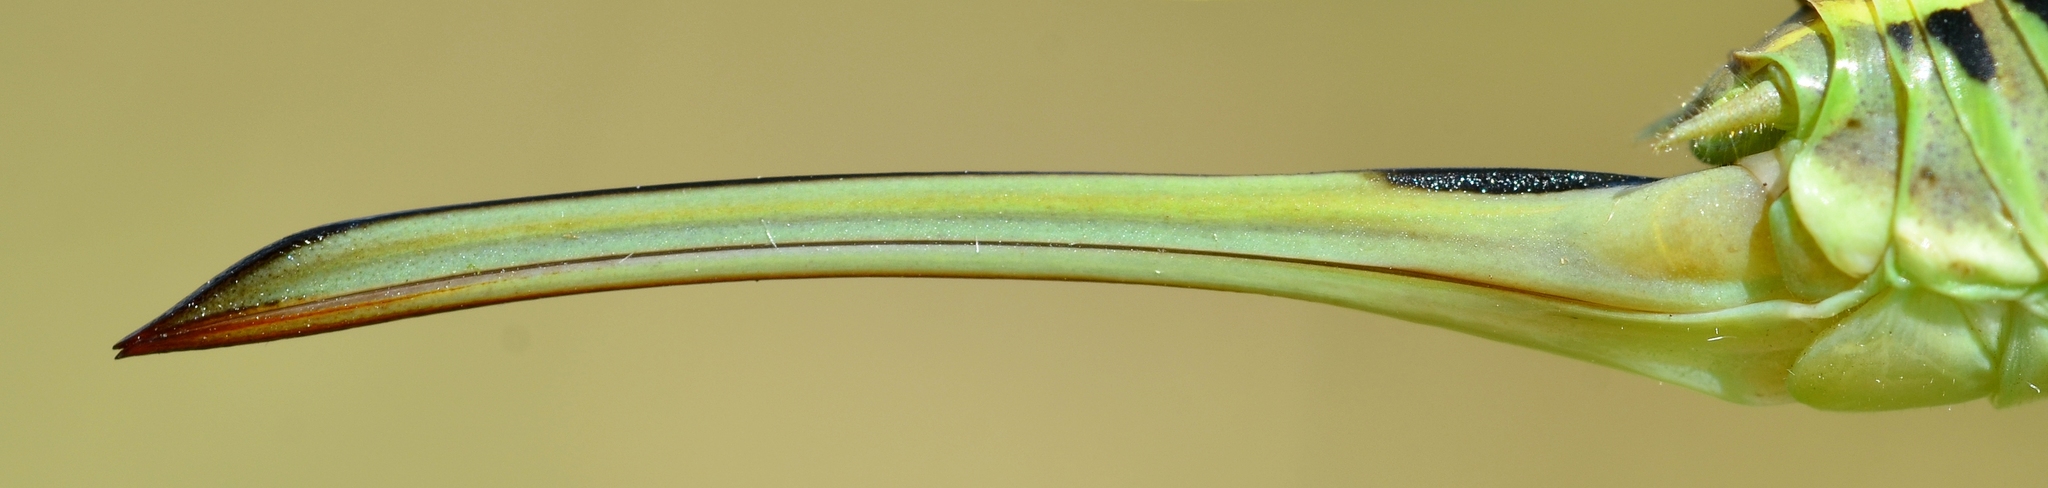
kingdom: Animalia
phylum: Arthropoda
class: Insecta
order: Orthoptera
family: Tettigoniidae
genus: Gampsocleis
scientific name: Gampsocleis glabra
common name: Heath bushcricket
